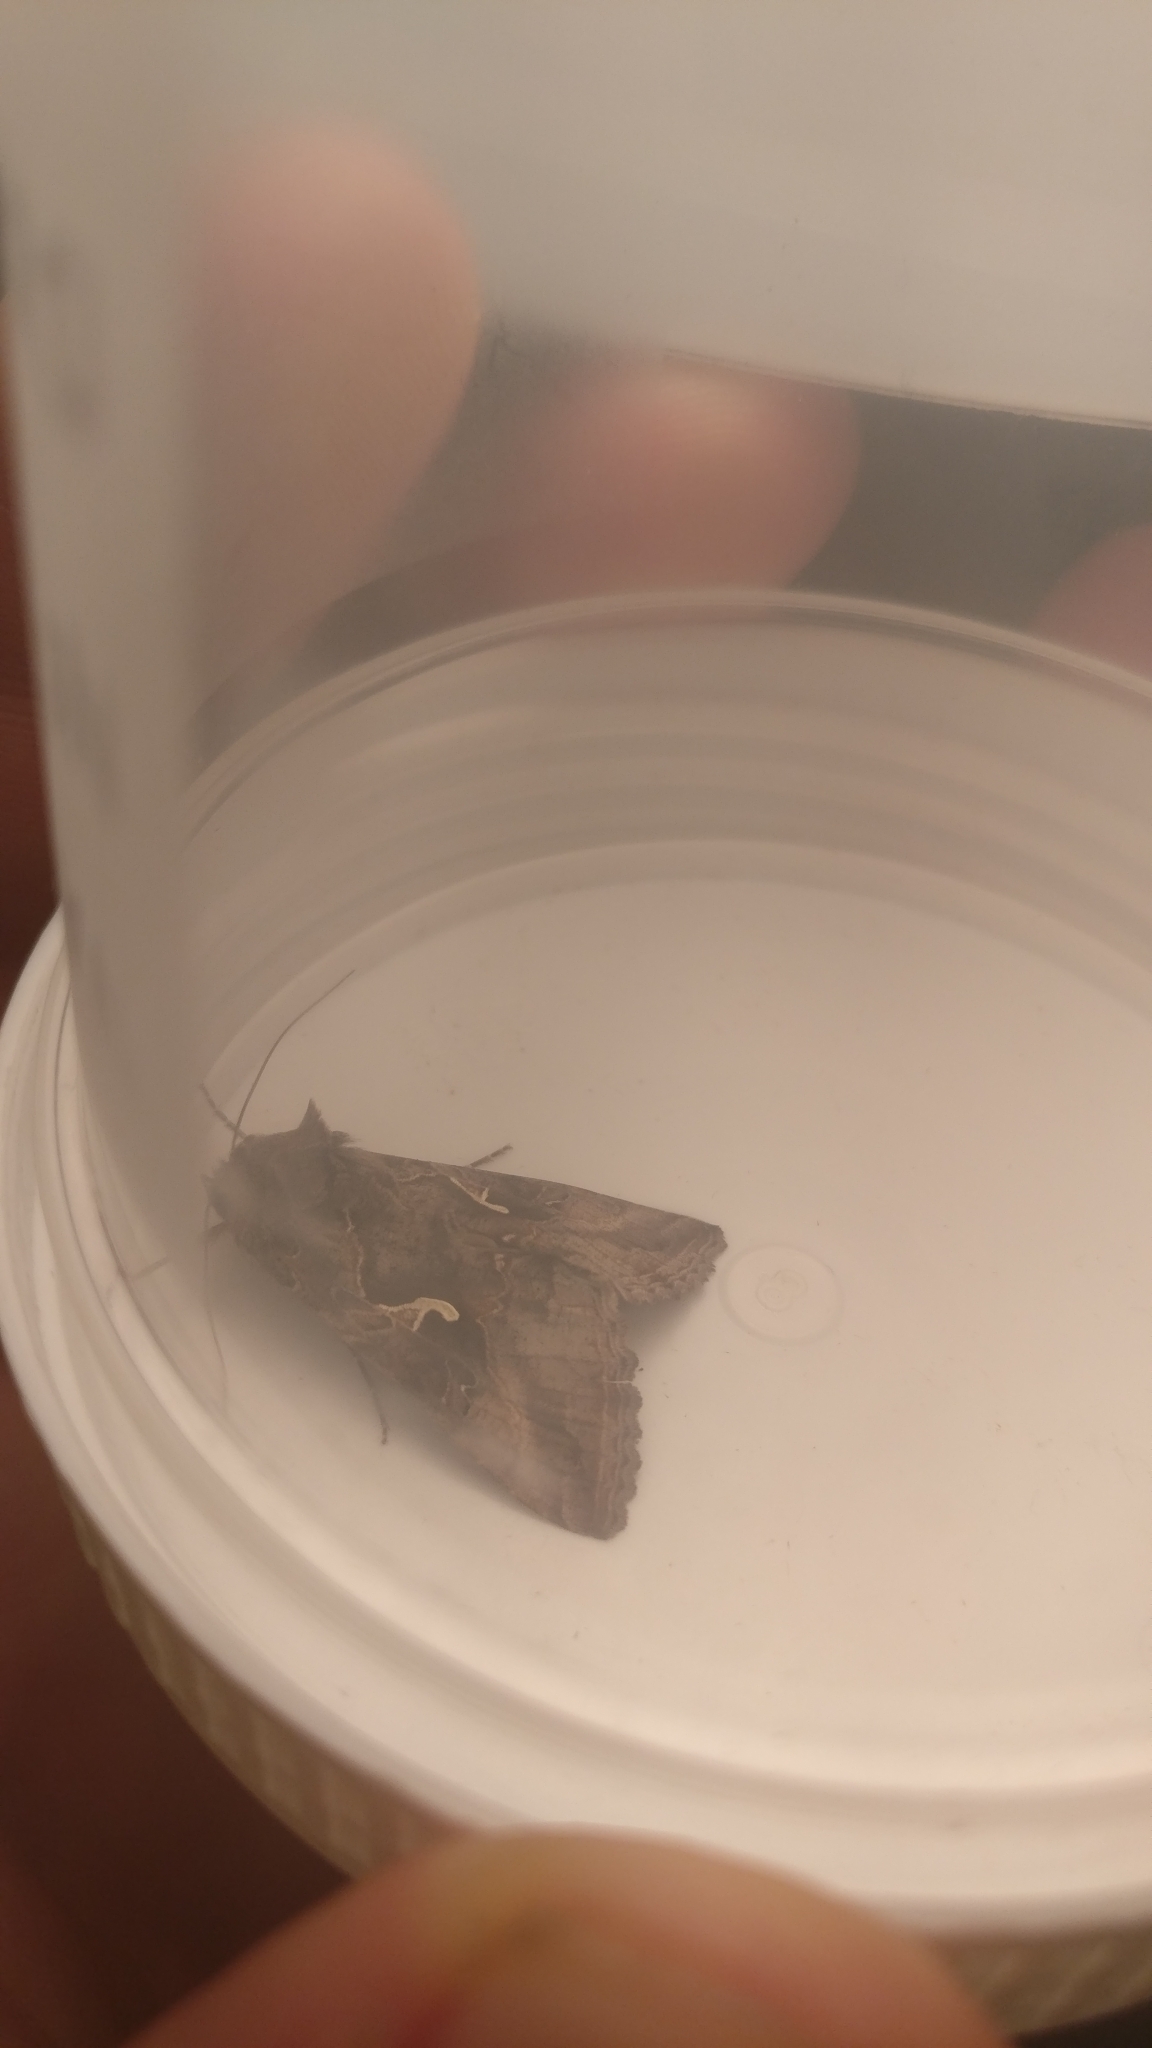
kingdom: Animalia
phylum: Arthropoda
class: Insecta
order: Lepidoptera
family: Noctuidae
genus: Autographa
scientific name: Autographa gamma
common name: Silver y
